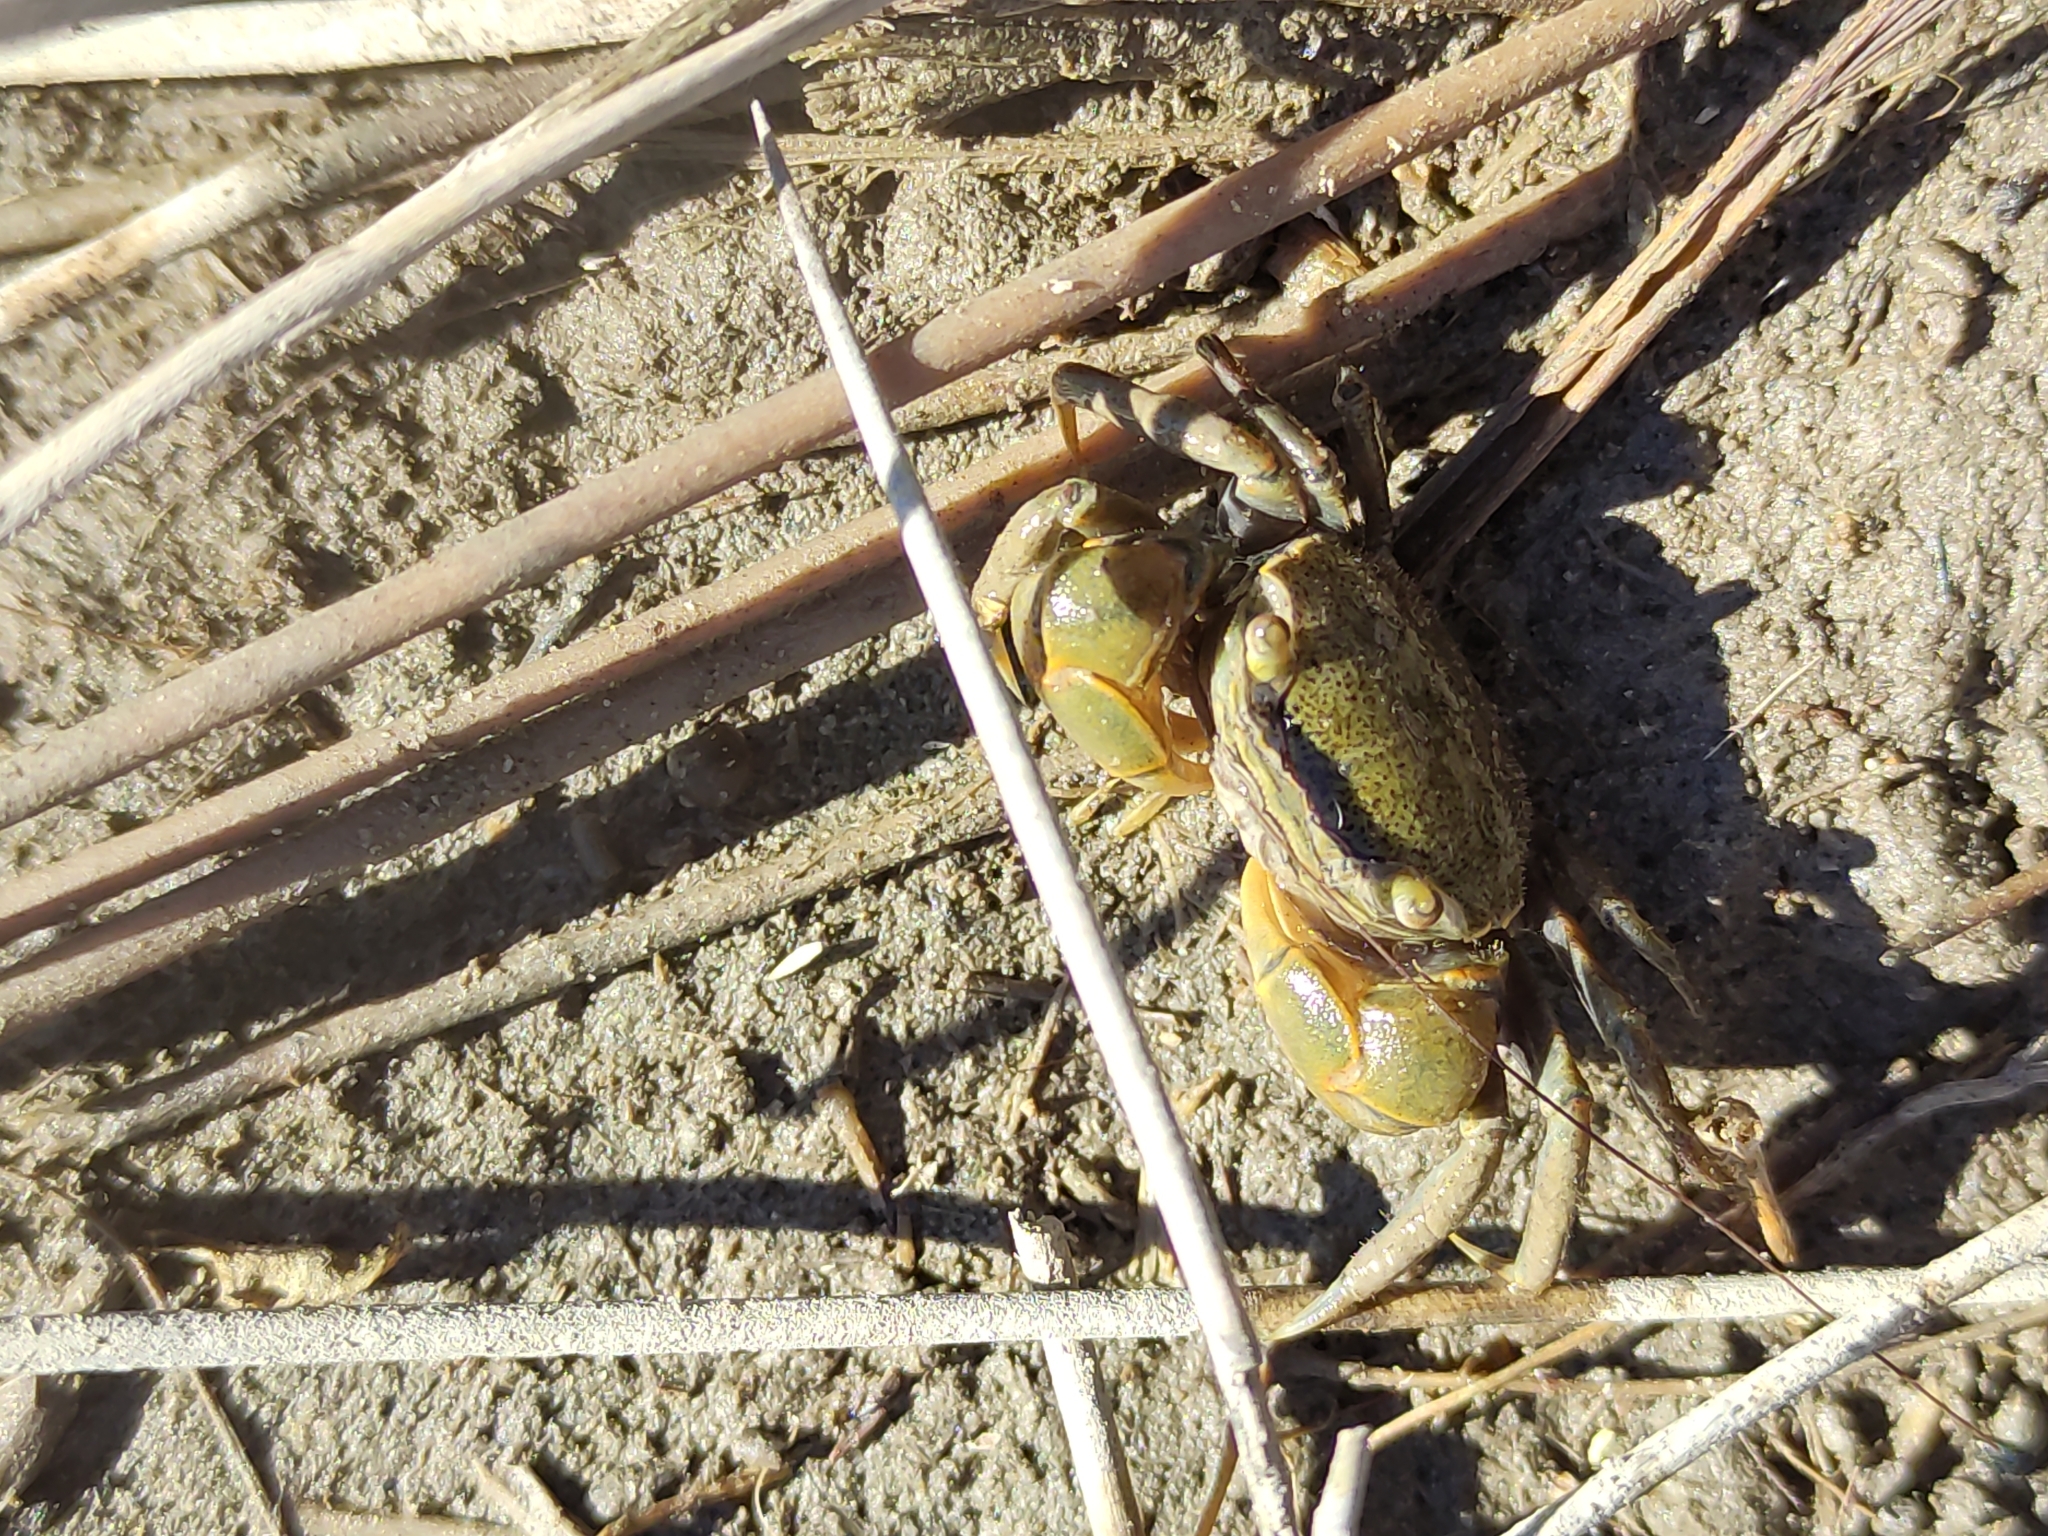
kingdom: Animalia
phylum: Arthropoda
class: Malacostraca
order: Decapoda
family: Varunidae
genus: Austrohelice
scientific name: Austrohelice crassa
